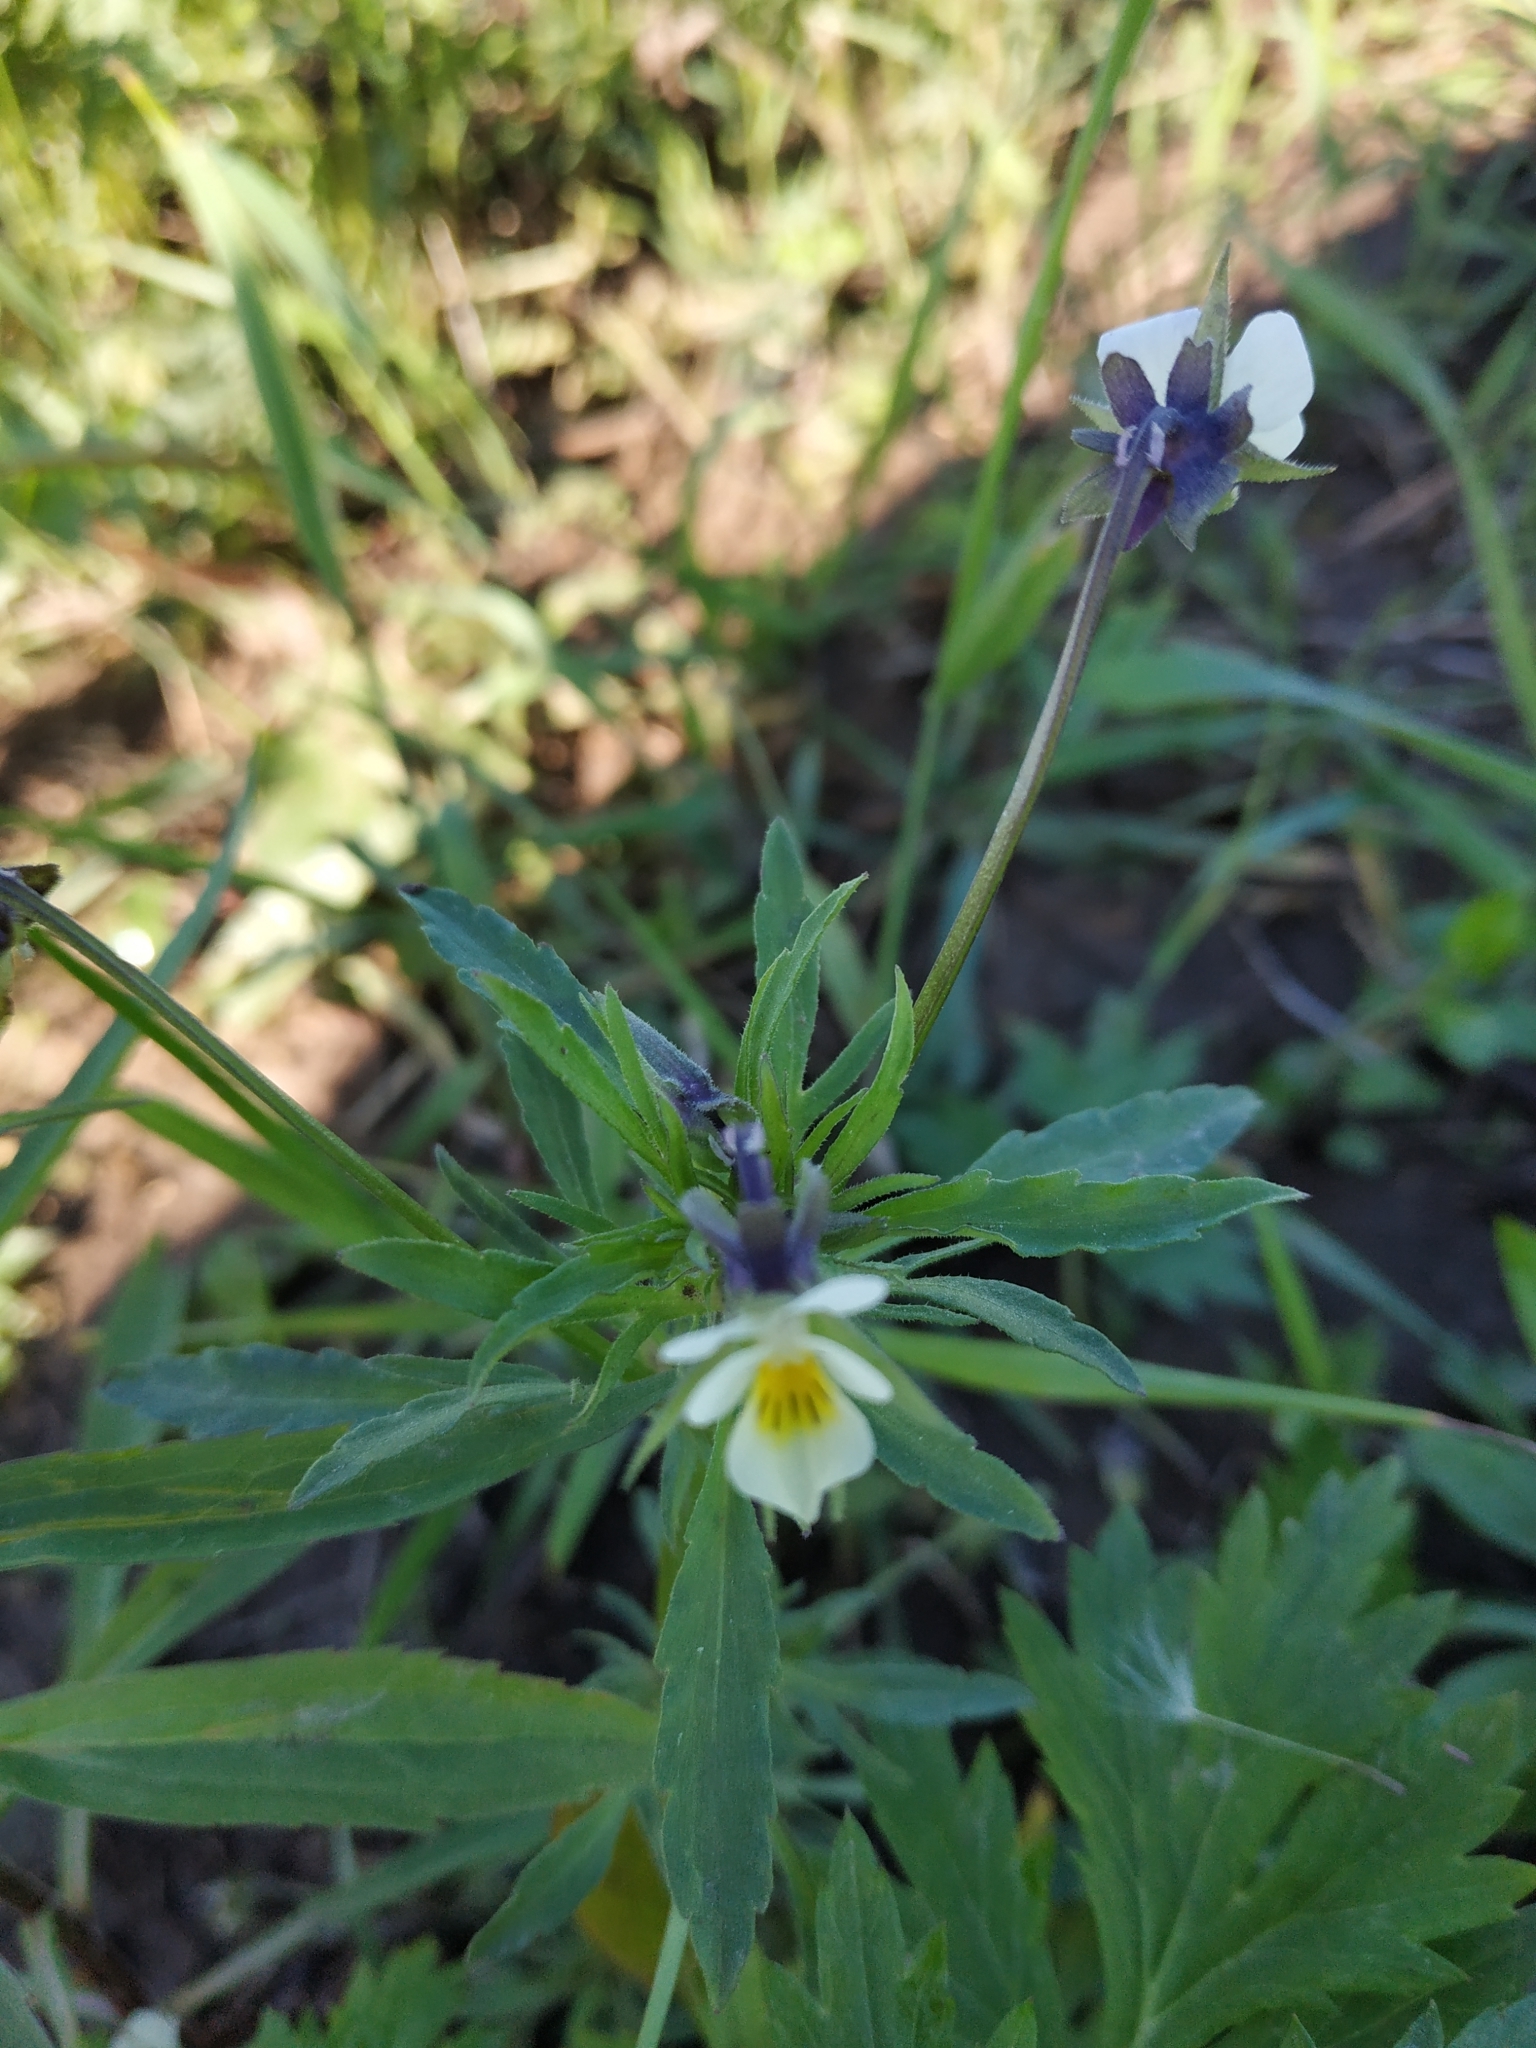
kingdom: Plantae
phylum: Tracheophyta
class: Magnoliopsida
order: Malpighiales
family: Violaceae
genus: Viola
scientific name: Viola arvensis
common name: Field pansy
